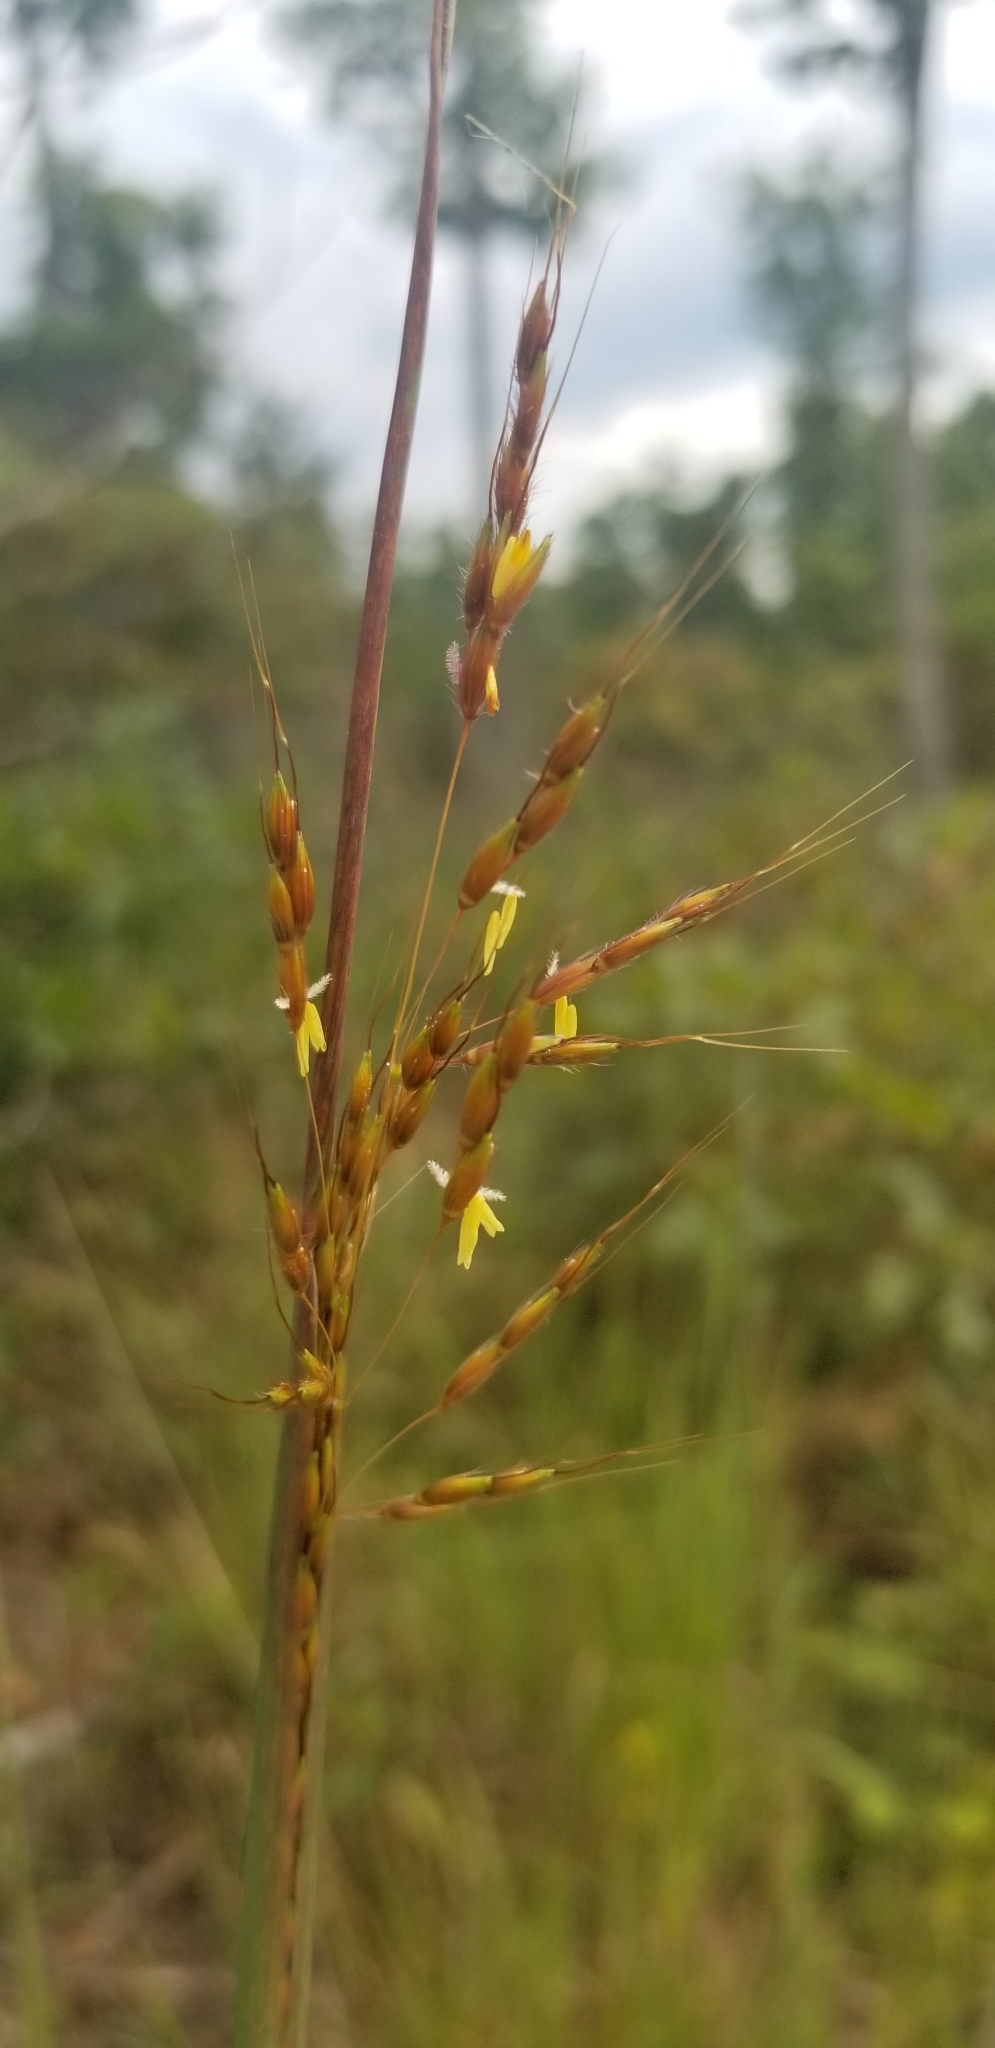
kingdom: Plantae
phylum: Tracheophyta
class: Liliopsida
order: Poales
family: Poaceae
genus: Sorghastrum
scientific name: Sorghastrum nutans
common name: Indian grass
